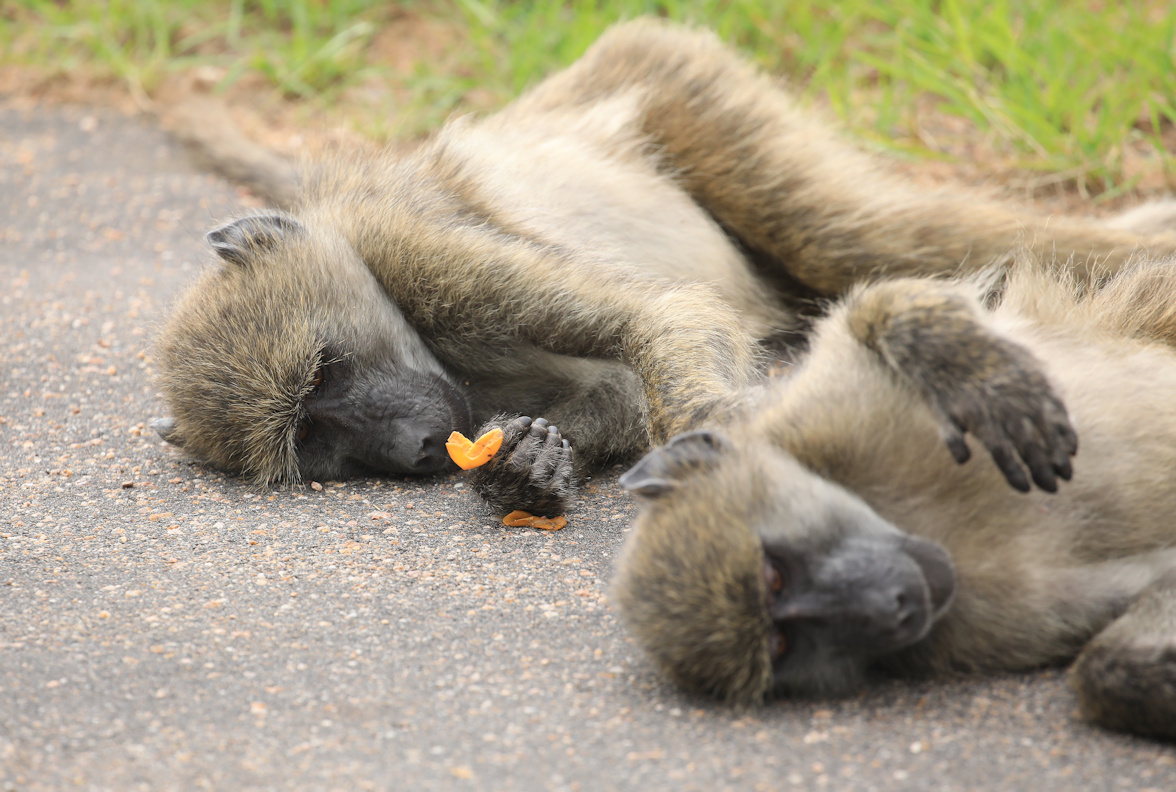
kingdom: Animalia
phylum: Chordata
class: Mammalia
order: Primates
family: Cercopithecidae
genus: Papio
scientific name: Papio ursinus
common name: Chacma baboon
